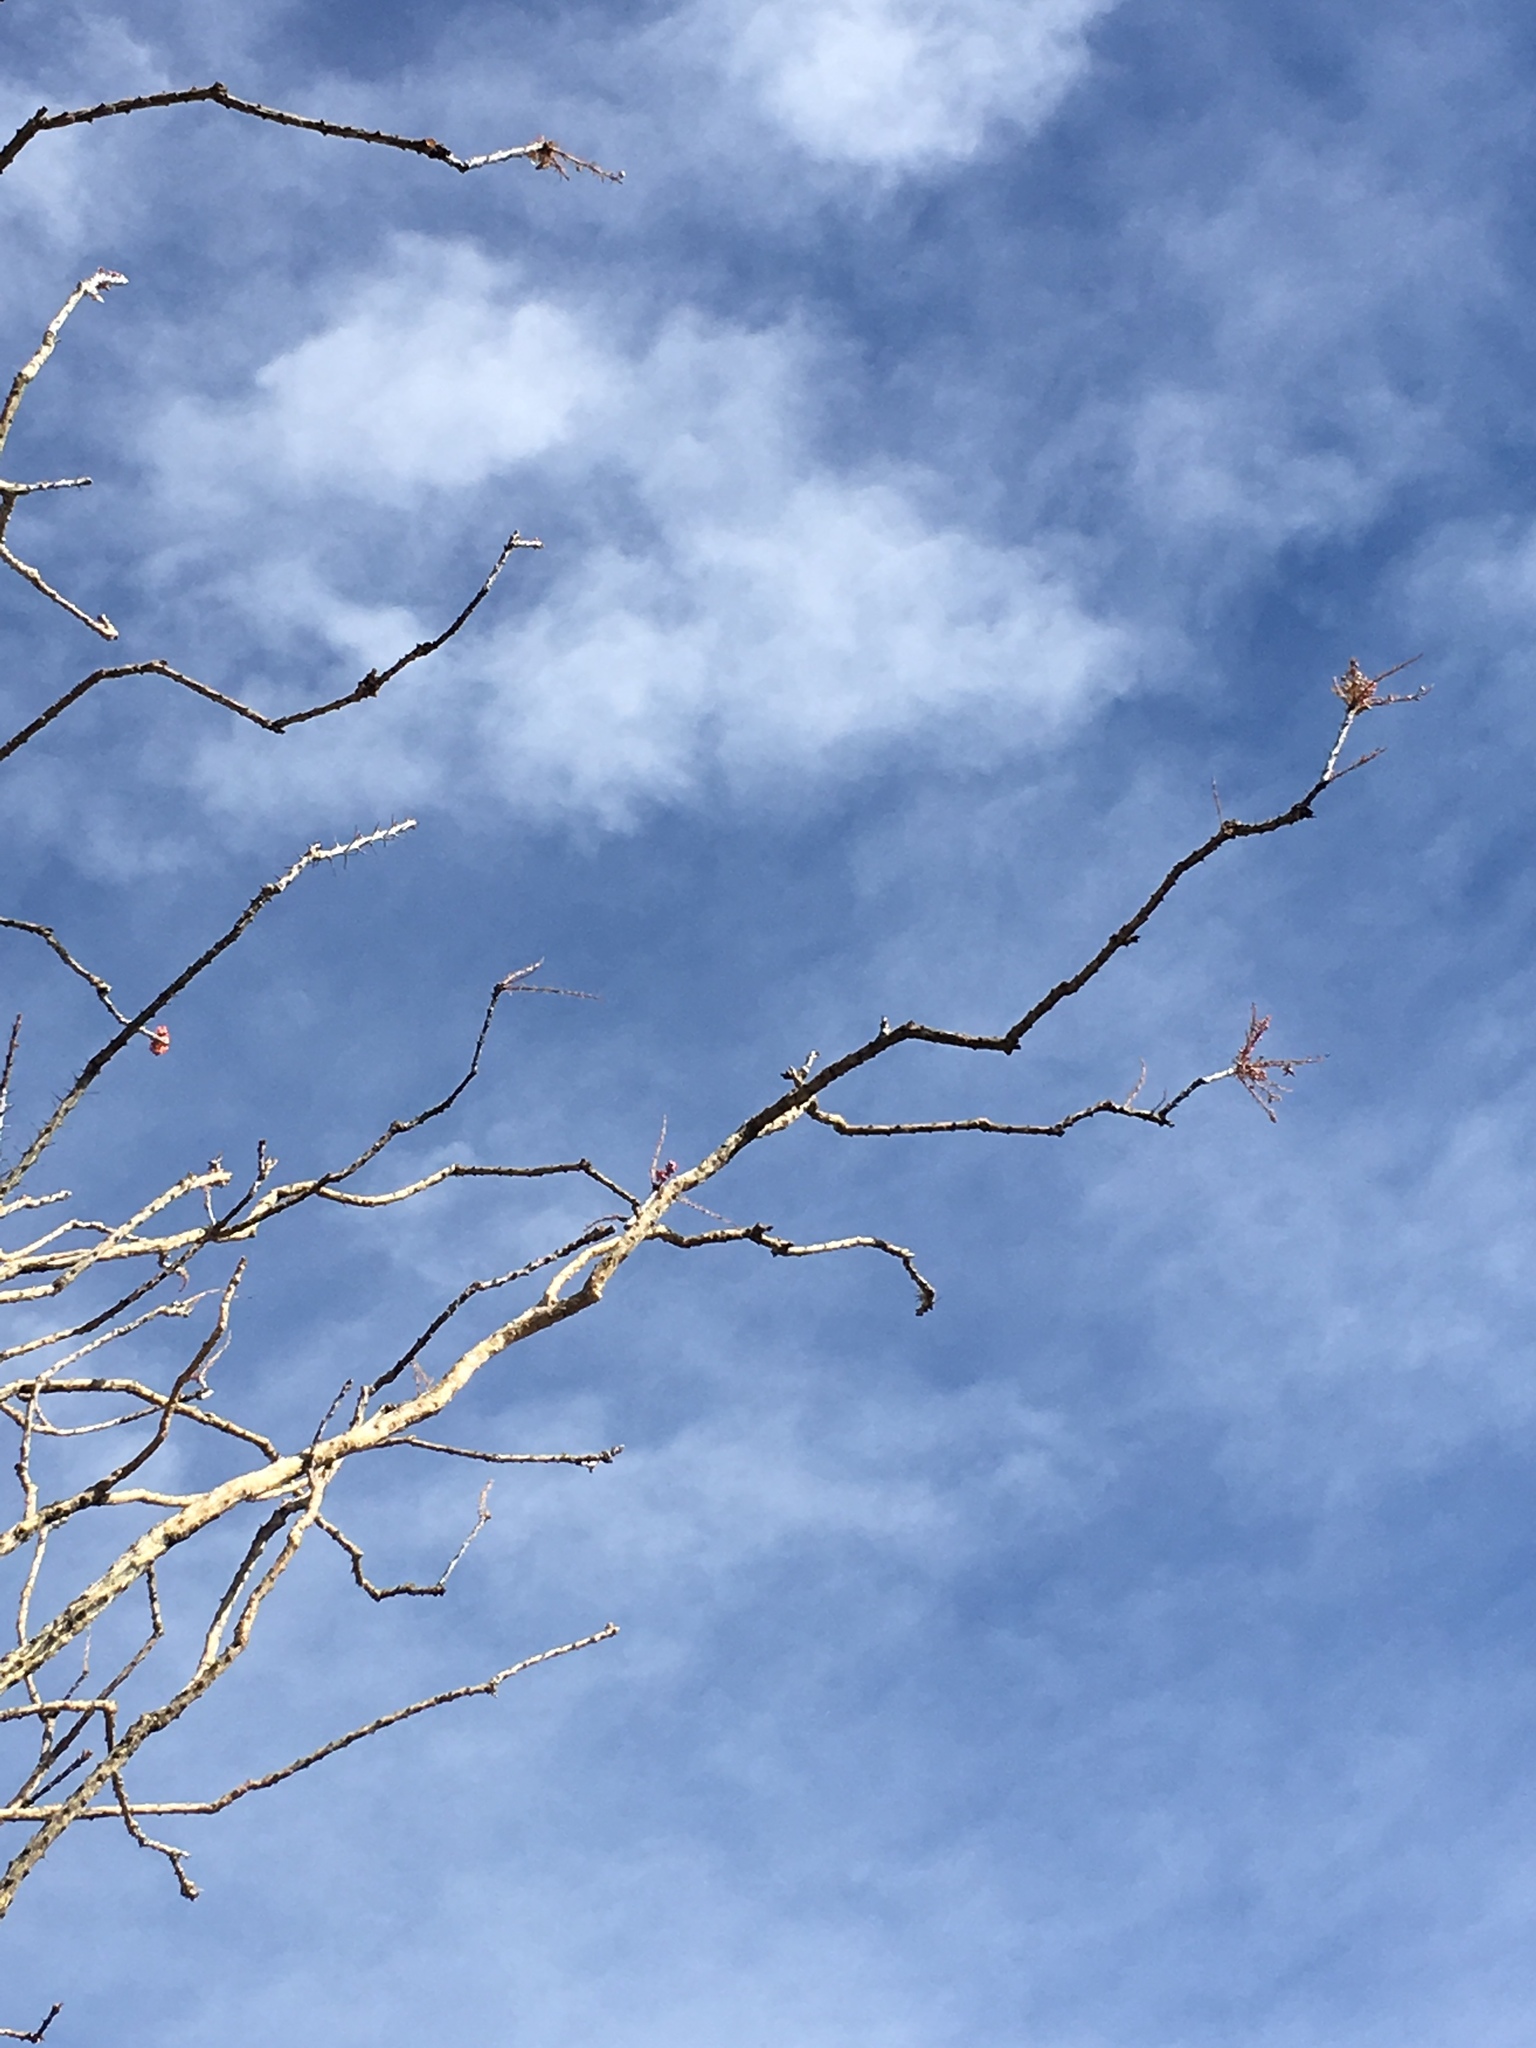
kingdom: Plantae
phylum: Tracheophyta
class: Magnoliopsida
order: Ericales
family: Fouquieriaceae
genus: Fouquieria
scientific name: Fouquieria splendens
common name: Vine-cactus
